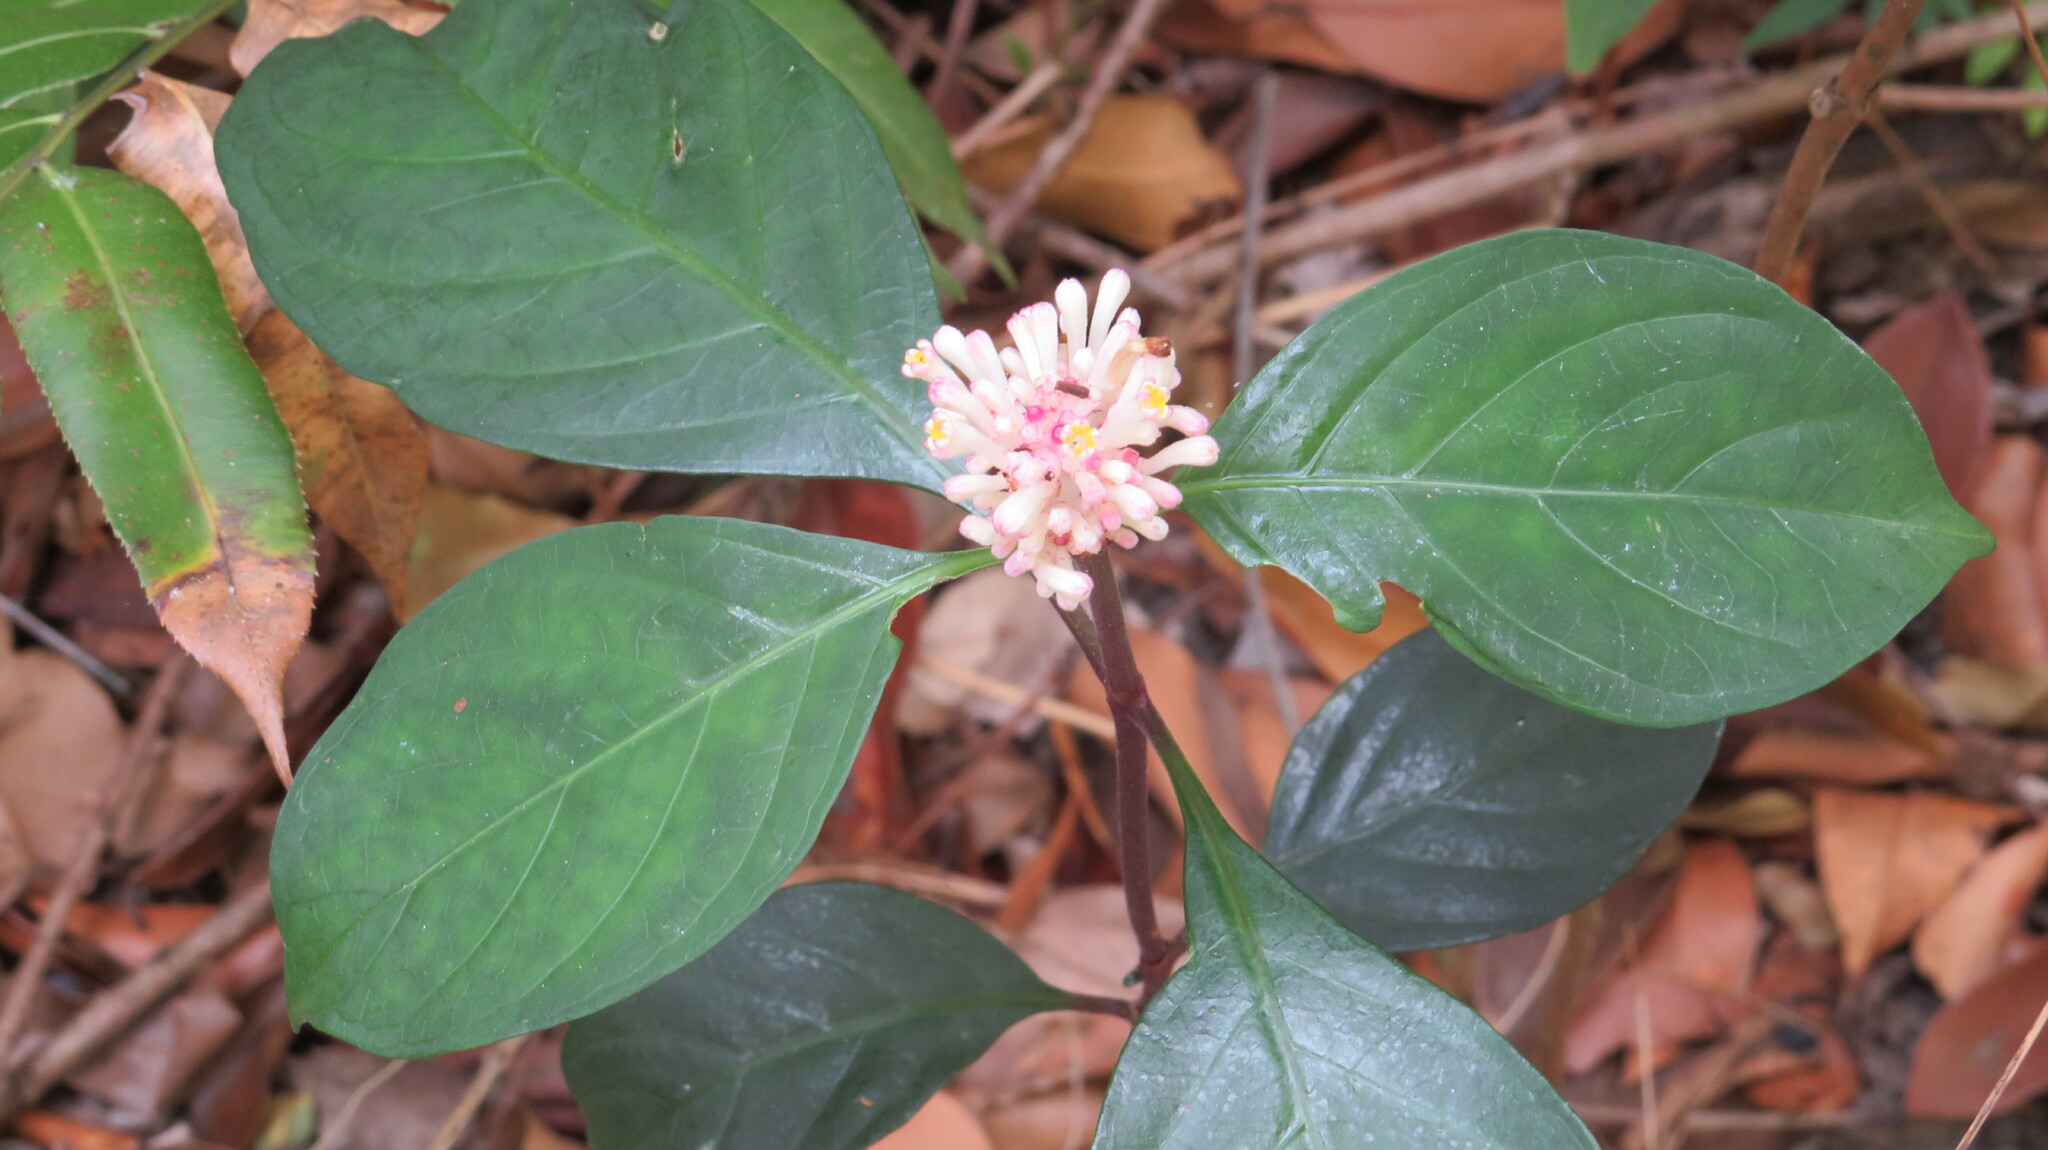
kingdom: Plantae
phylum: Tracheophyta
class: Magnoliopsida
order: Gentianales
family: Rubiaceae
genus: Chassalia
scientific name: Chassalia curviflora
